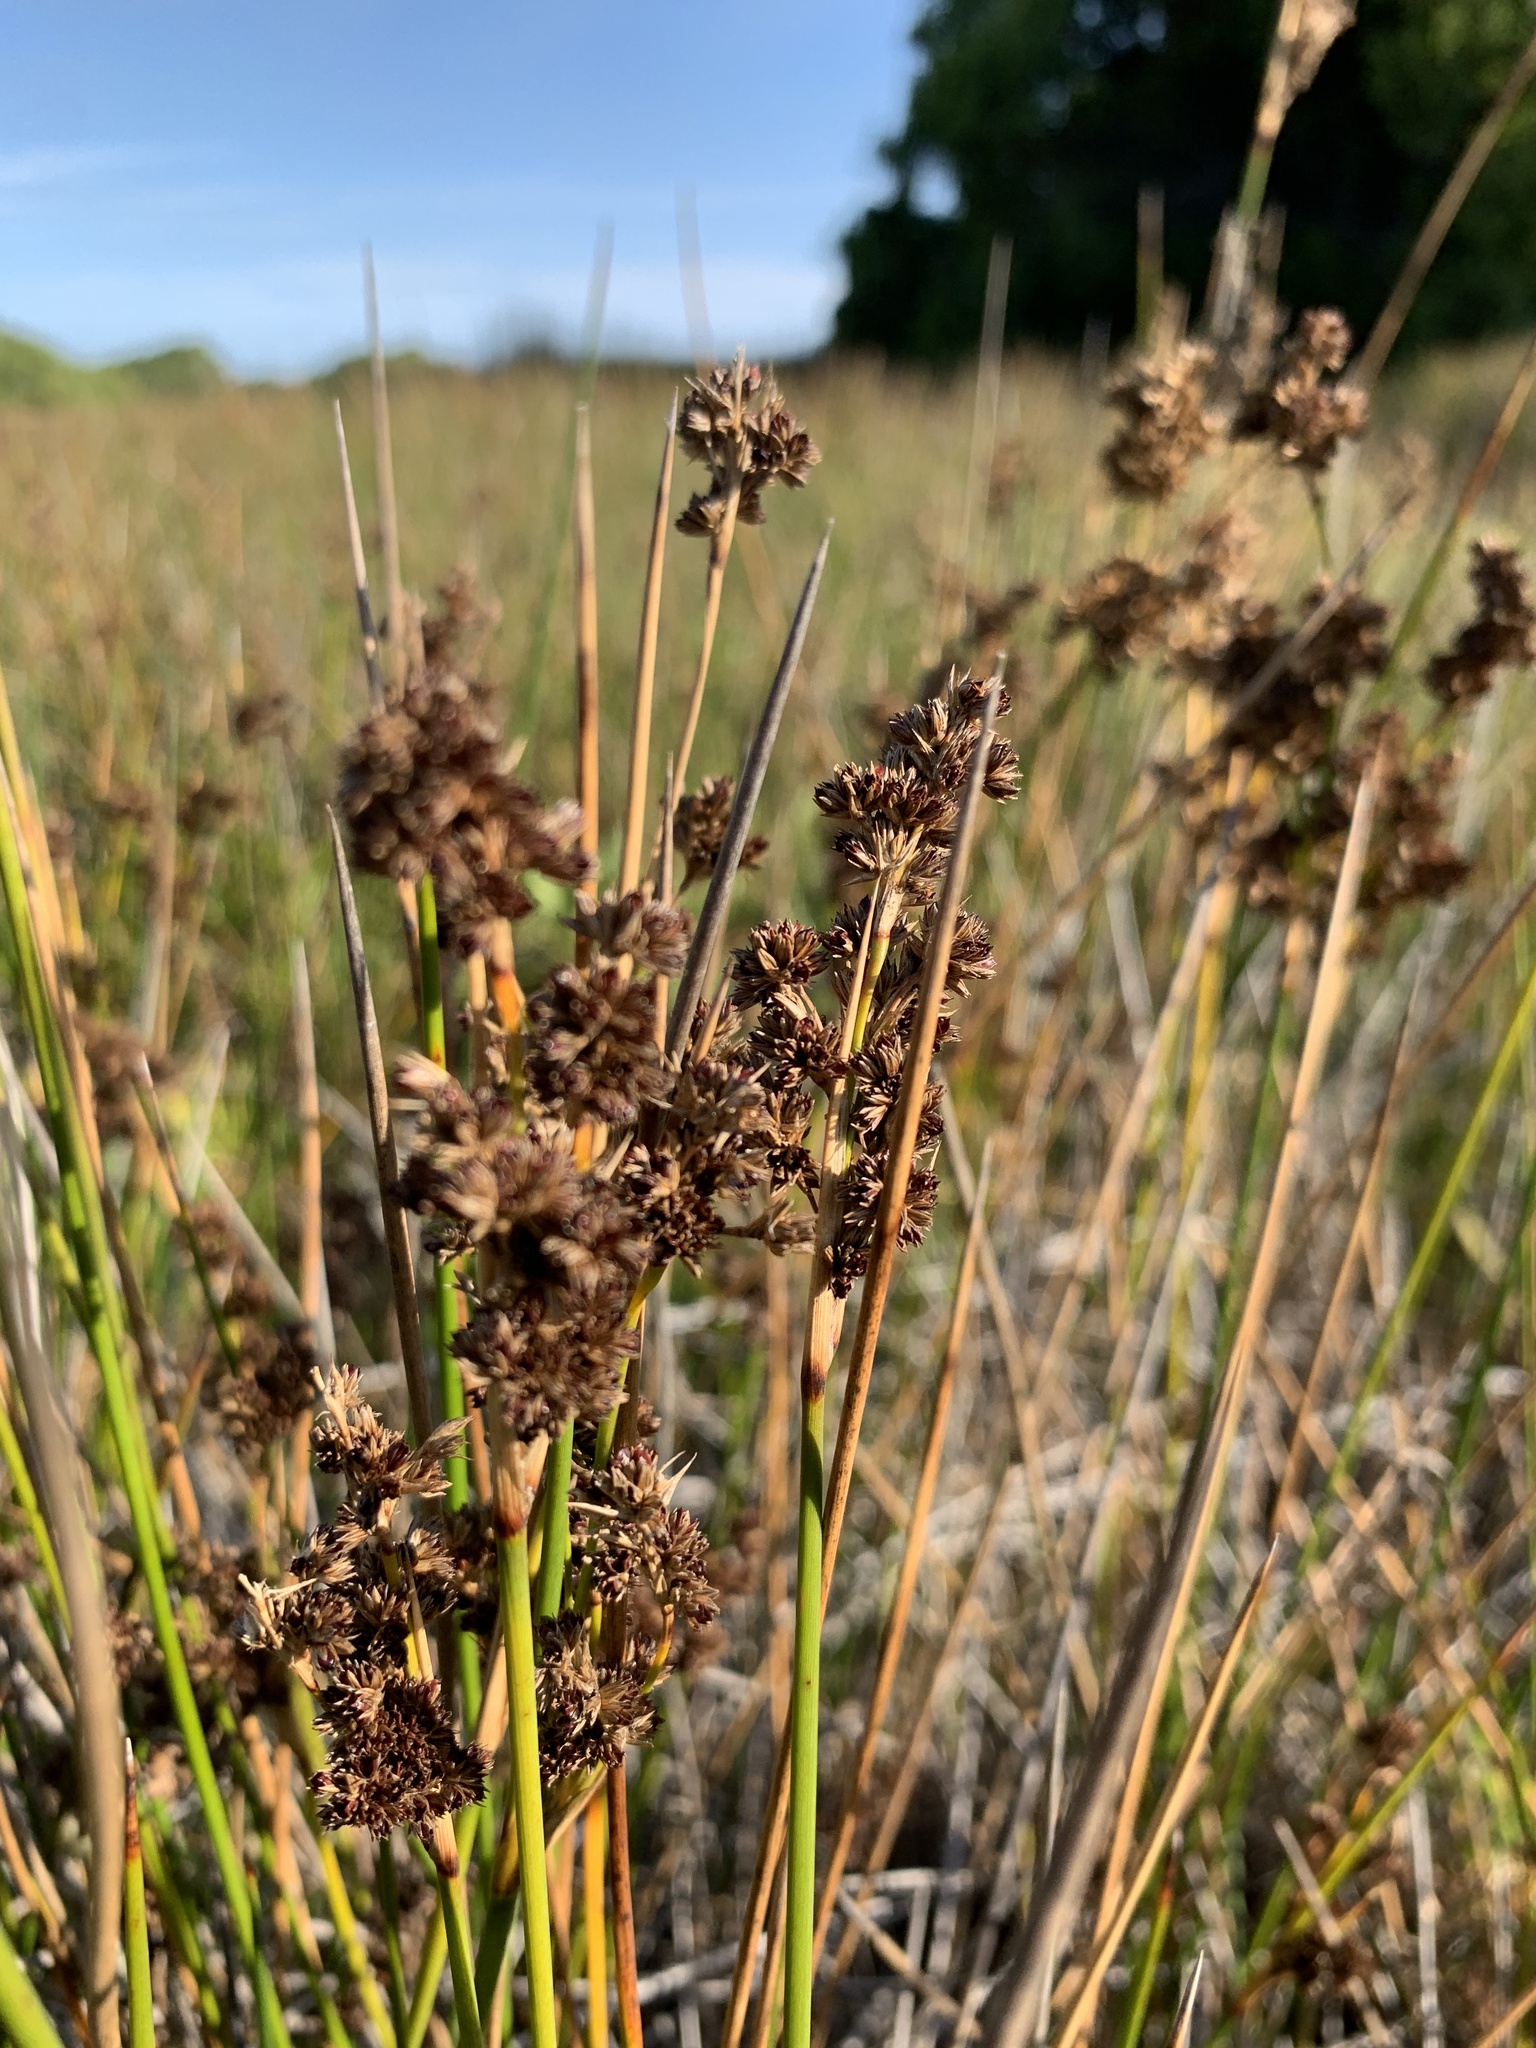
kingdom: Plantae
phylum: Tracheophyta
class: Liliopsida
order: Poales
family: Juncaceae
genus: Juncus
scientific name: Juncus kraussii
